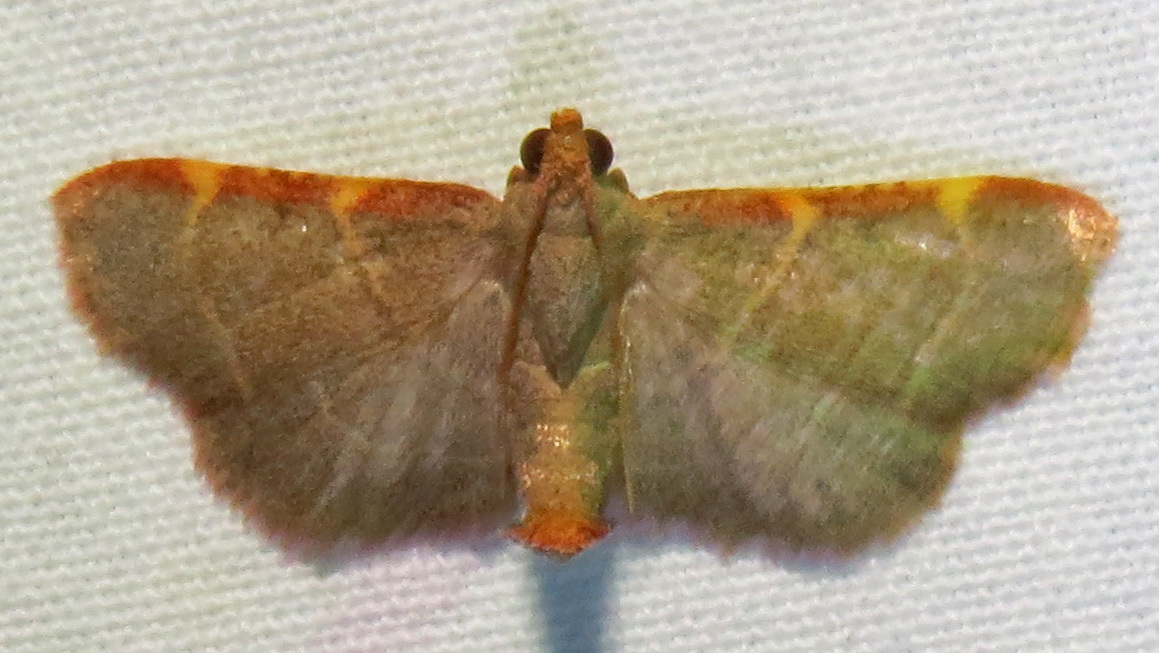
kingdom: Animalia
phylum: Arthropoda
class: Insecta
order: Lepidoptera
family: Pyralidae
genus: Hypsopygia
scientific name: Hypsopygia binodulalis
